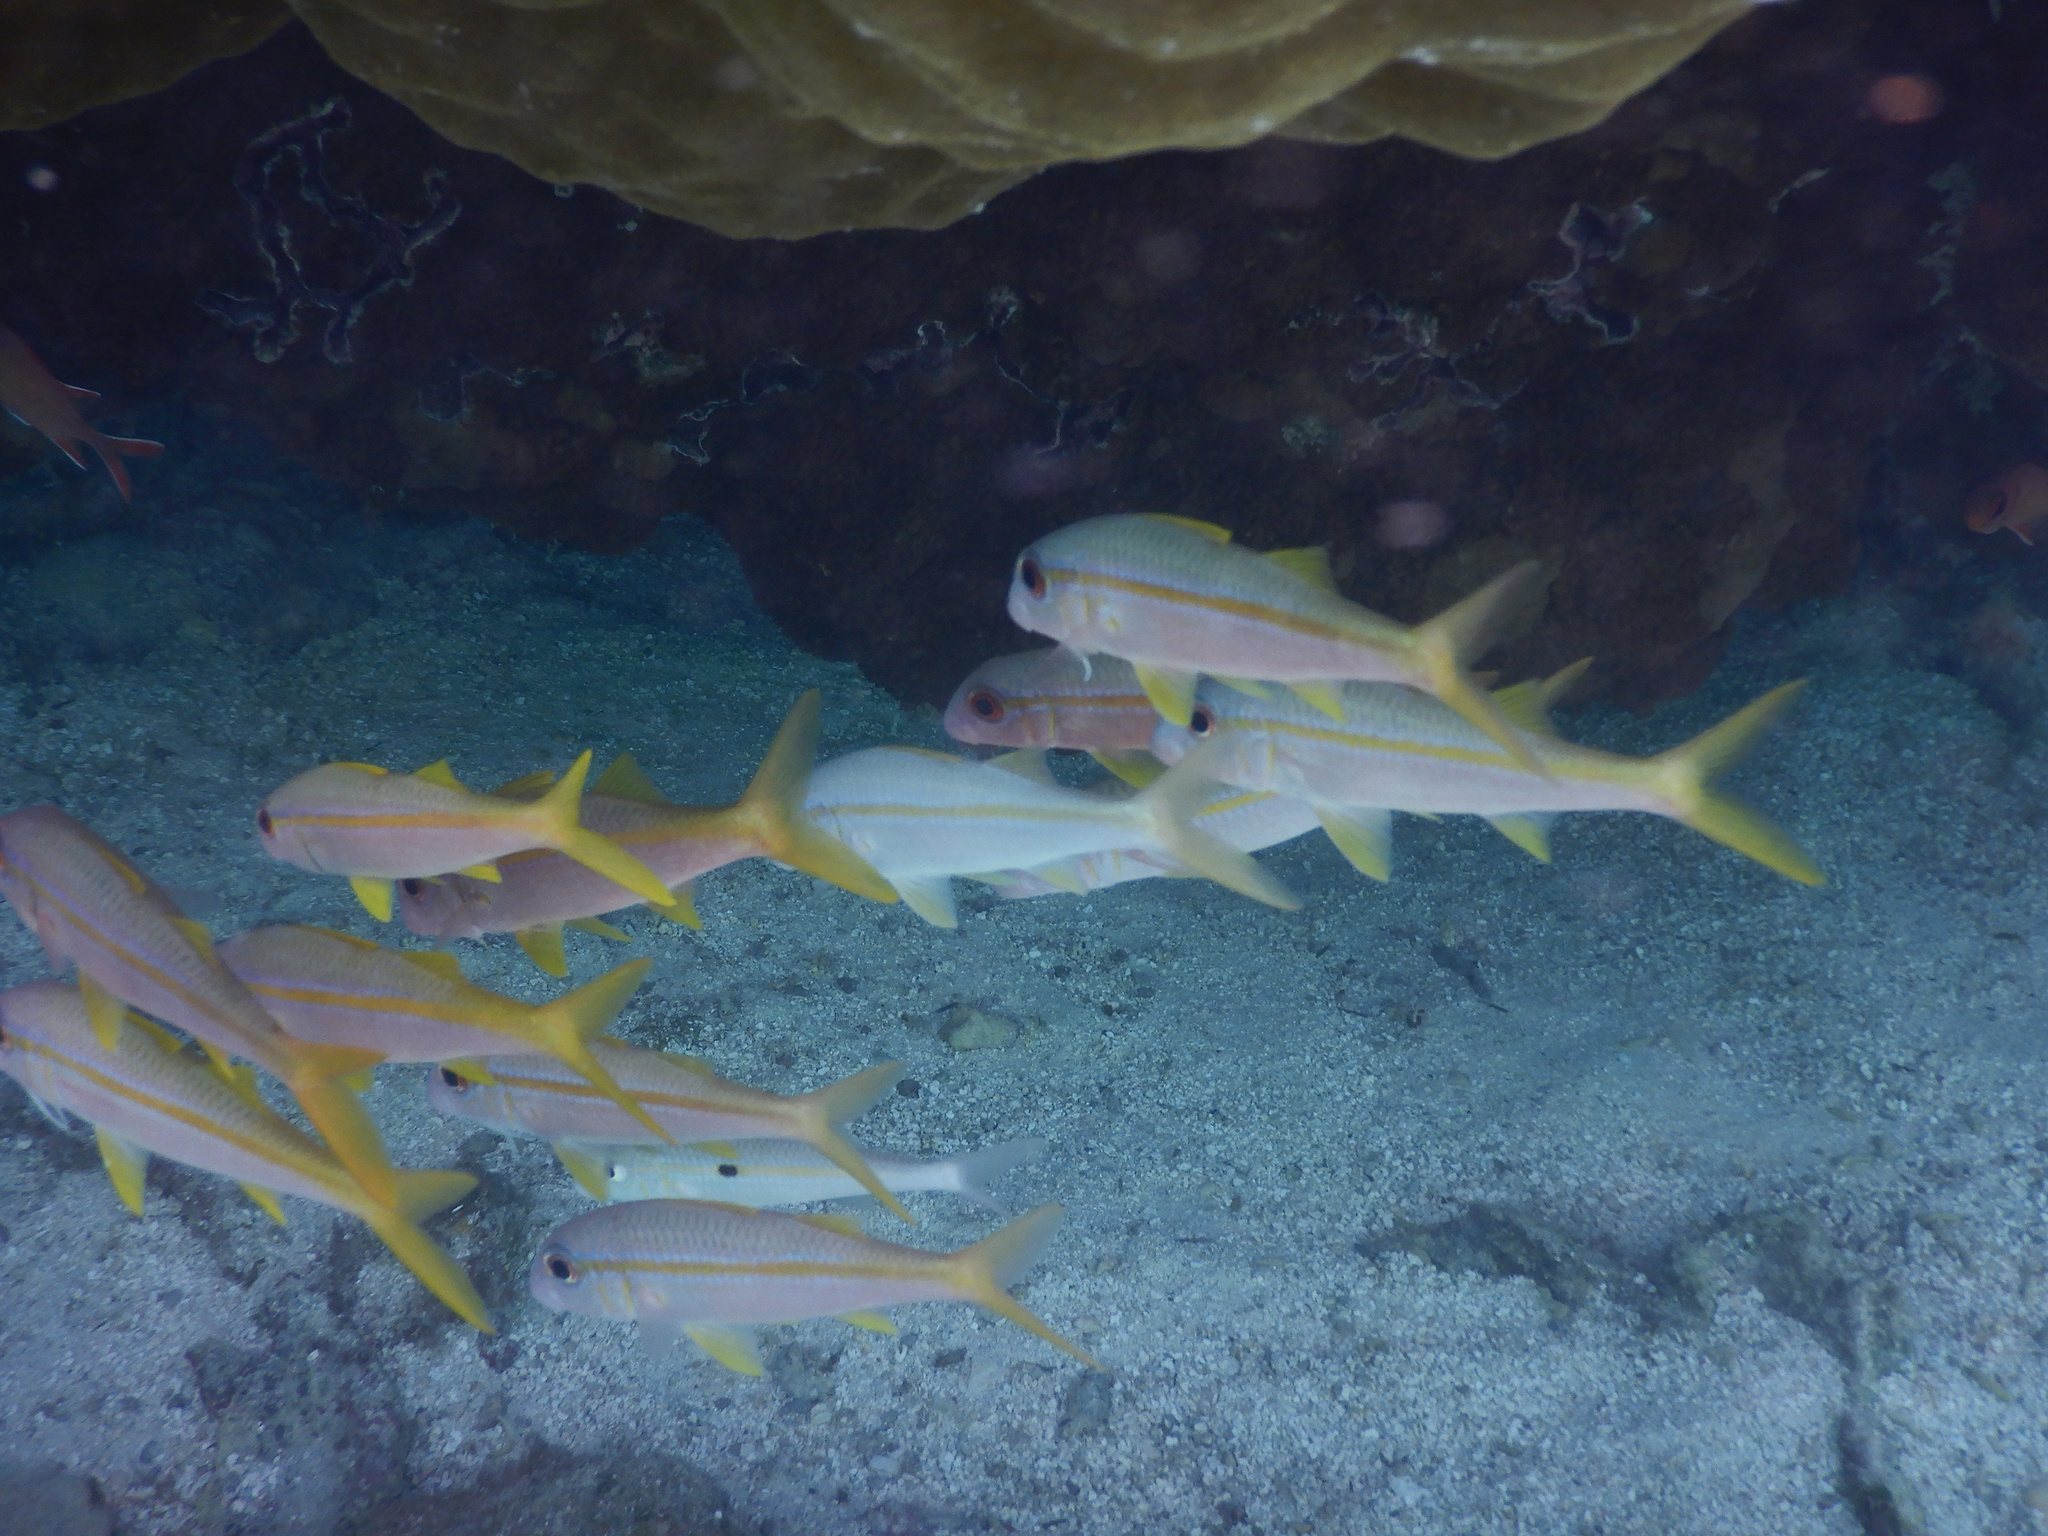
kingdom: Animalia
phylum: Chordata
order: Perciformes
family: Mullidae
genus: Mulloidichthys
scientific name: Mulloidichthys vanicolensis
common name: Yellowfin goatfish
